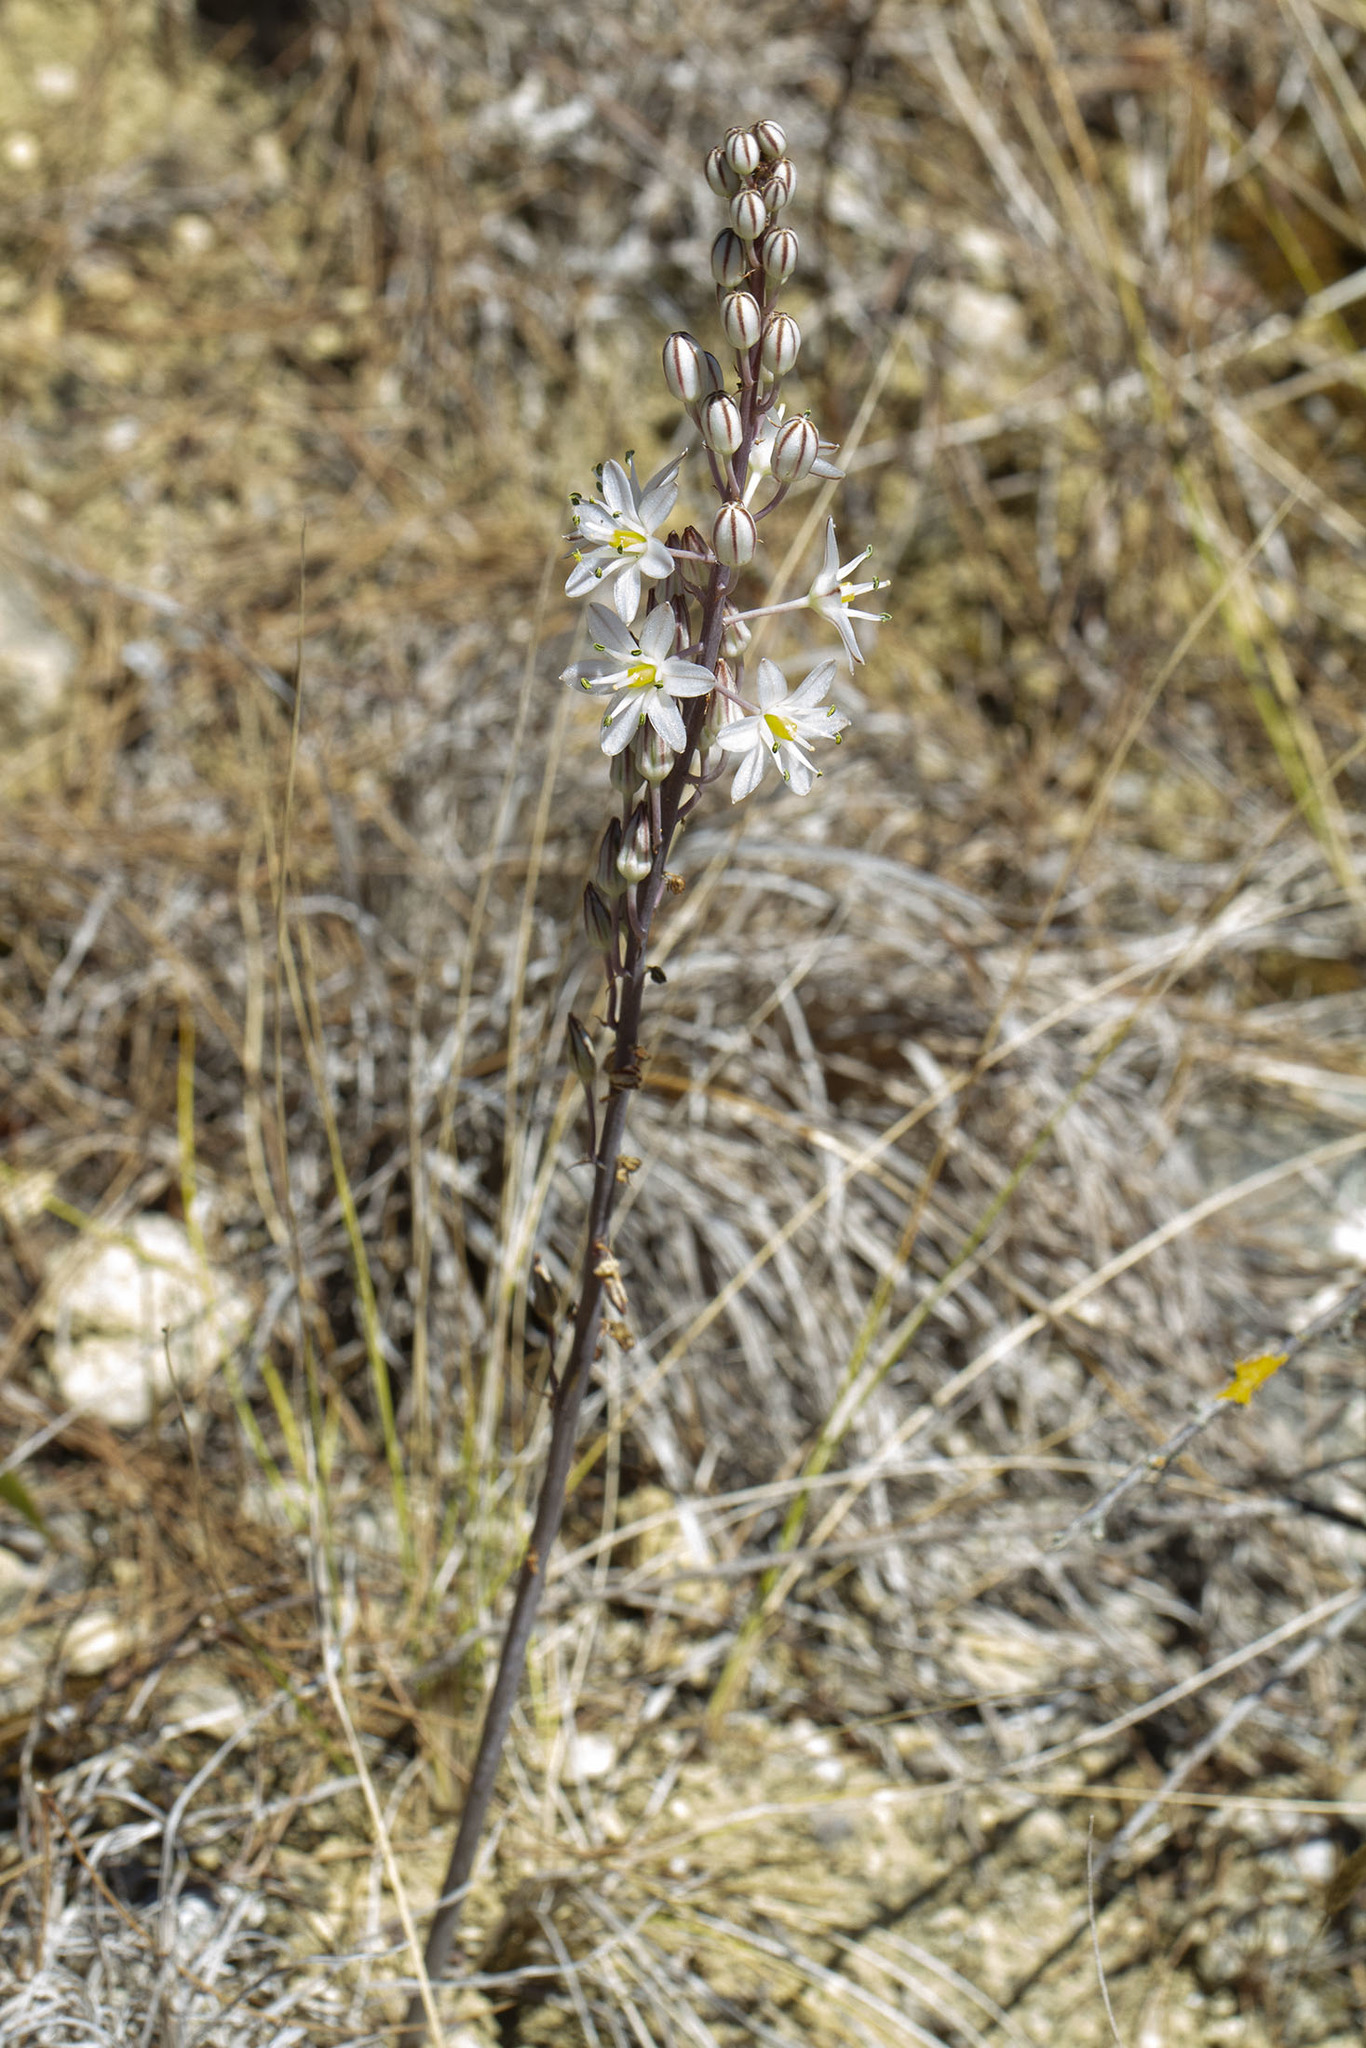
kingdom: Plantae
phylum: Tracheophyta
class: Liliopsida
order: Asparagales
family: Asparagaceae
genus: Drimia
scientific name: Drimia maritima
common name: Maritime squill
